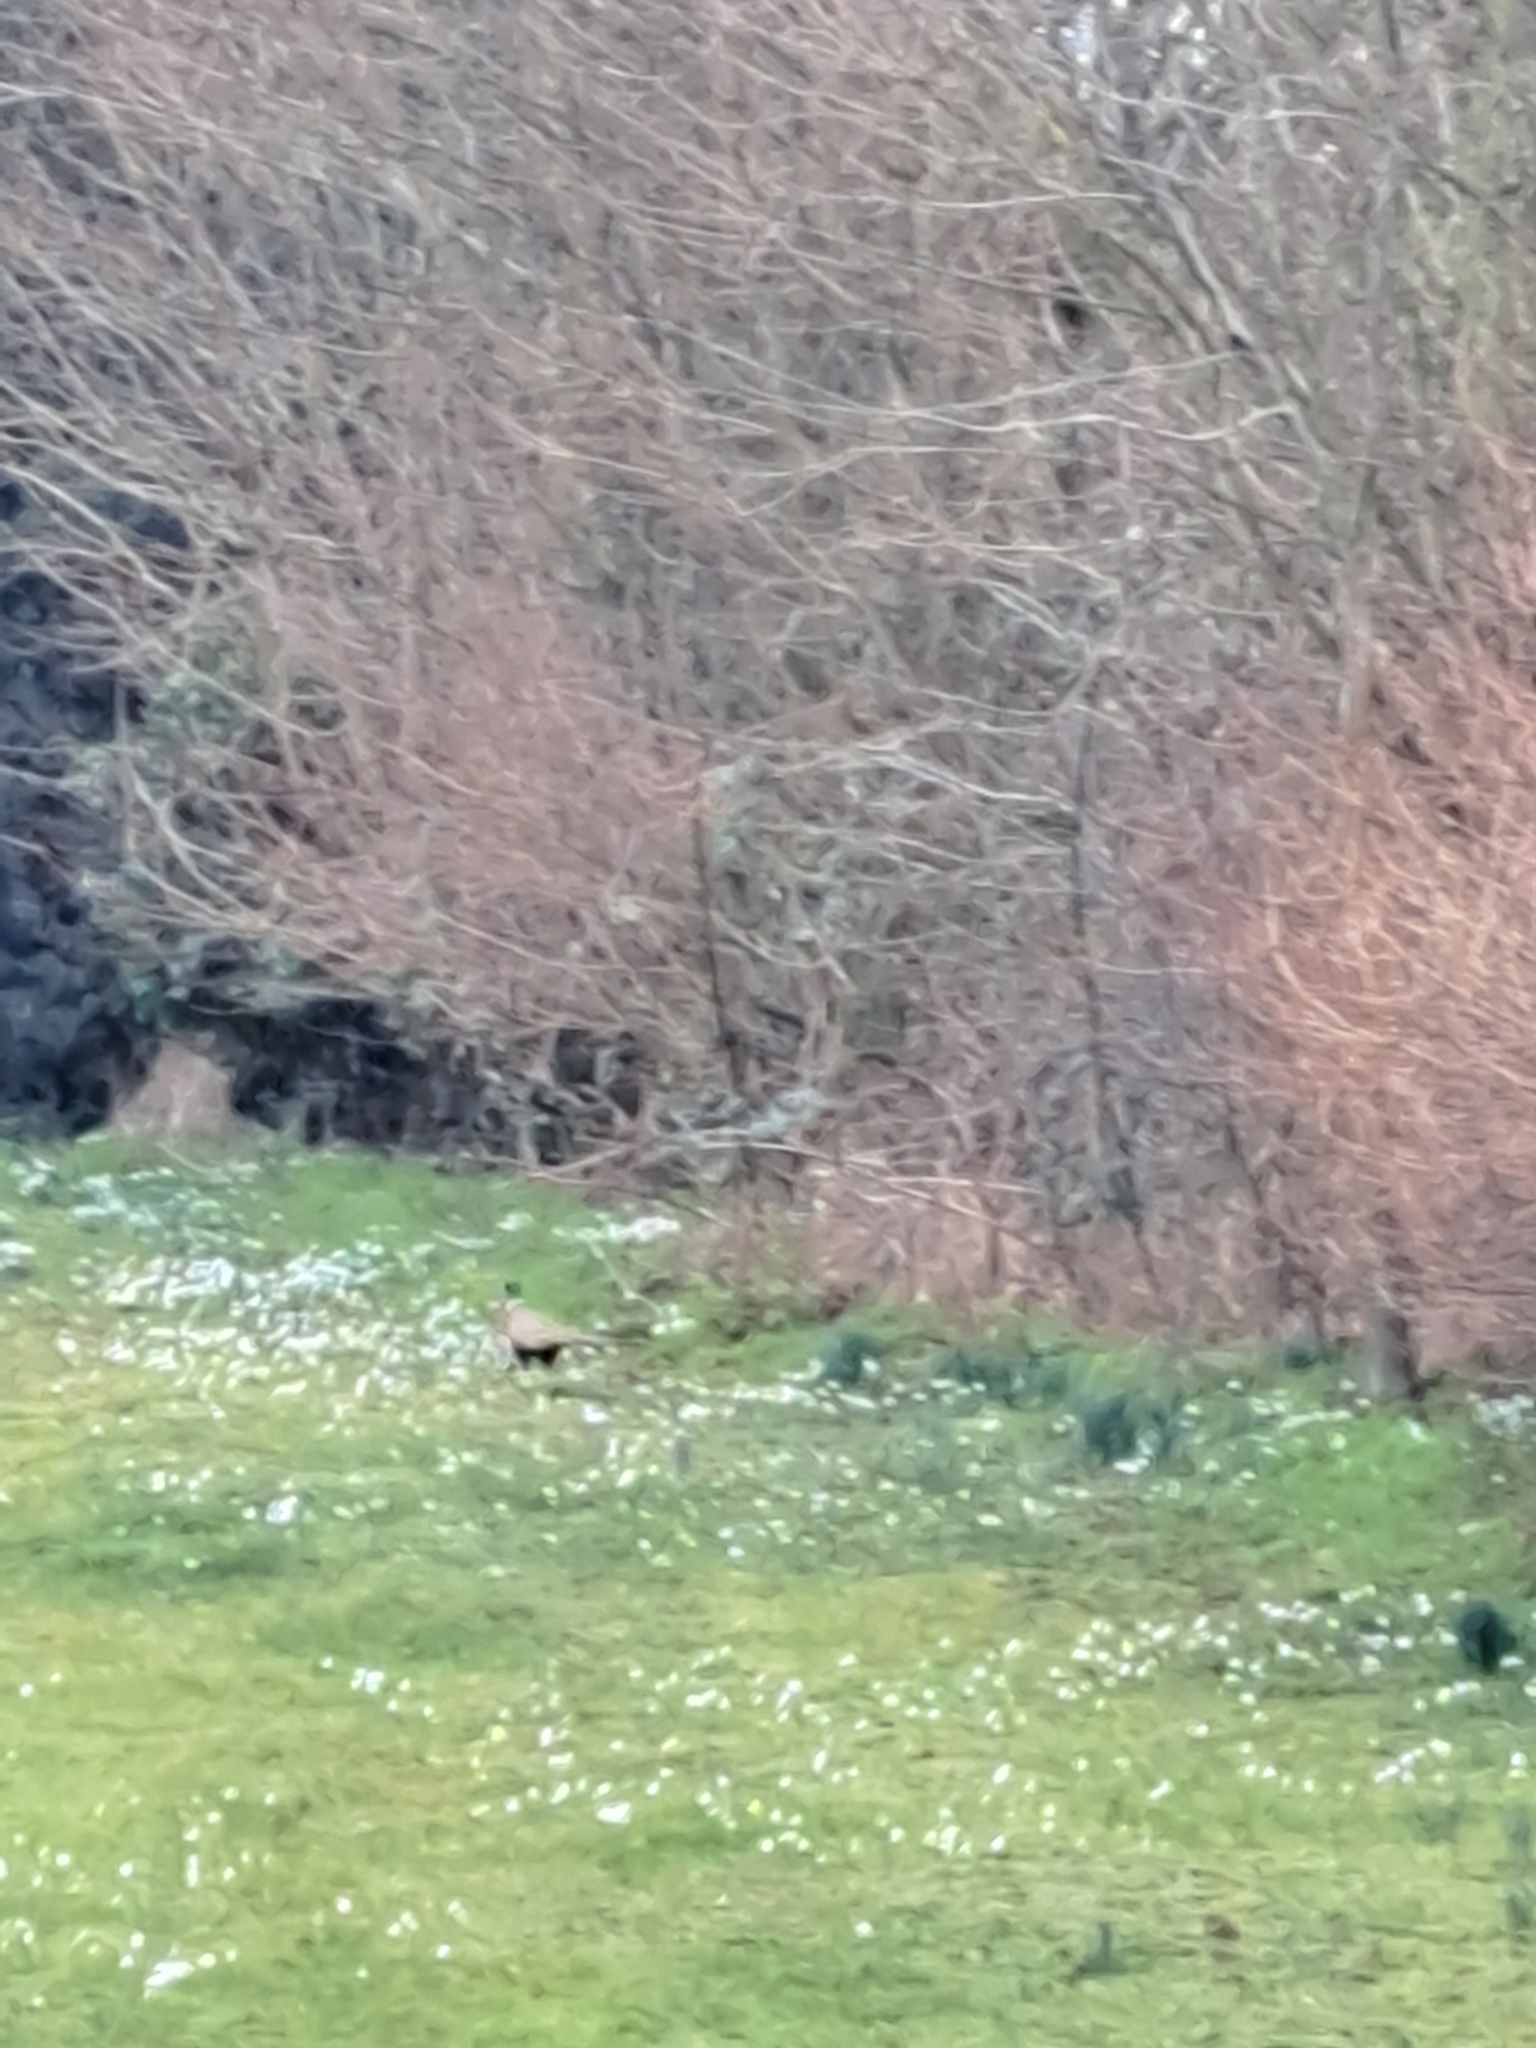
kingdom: Animalia
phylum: Chordata
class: Aves
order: Galliformes
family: Phasianidae
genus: Phasianus
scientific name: Phasianus colchicus
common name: Common pheasant
